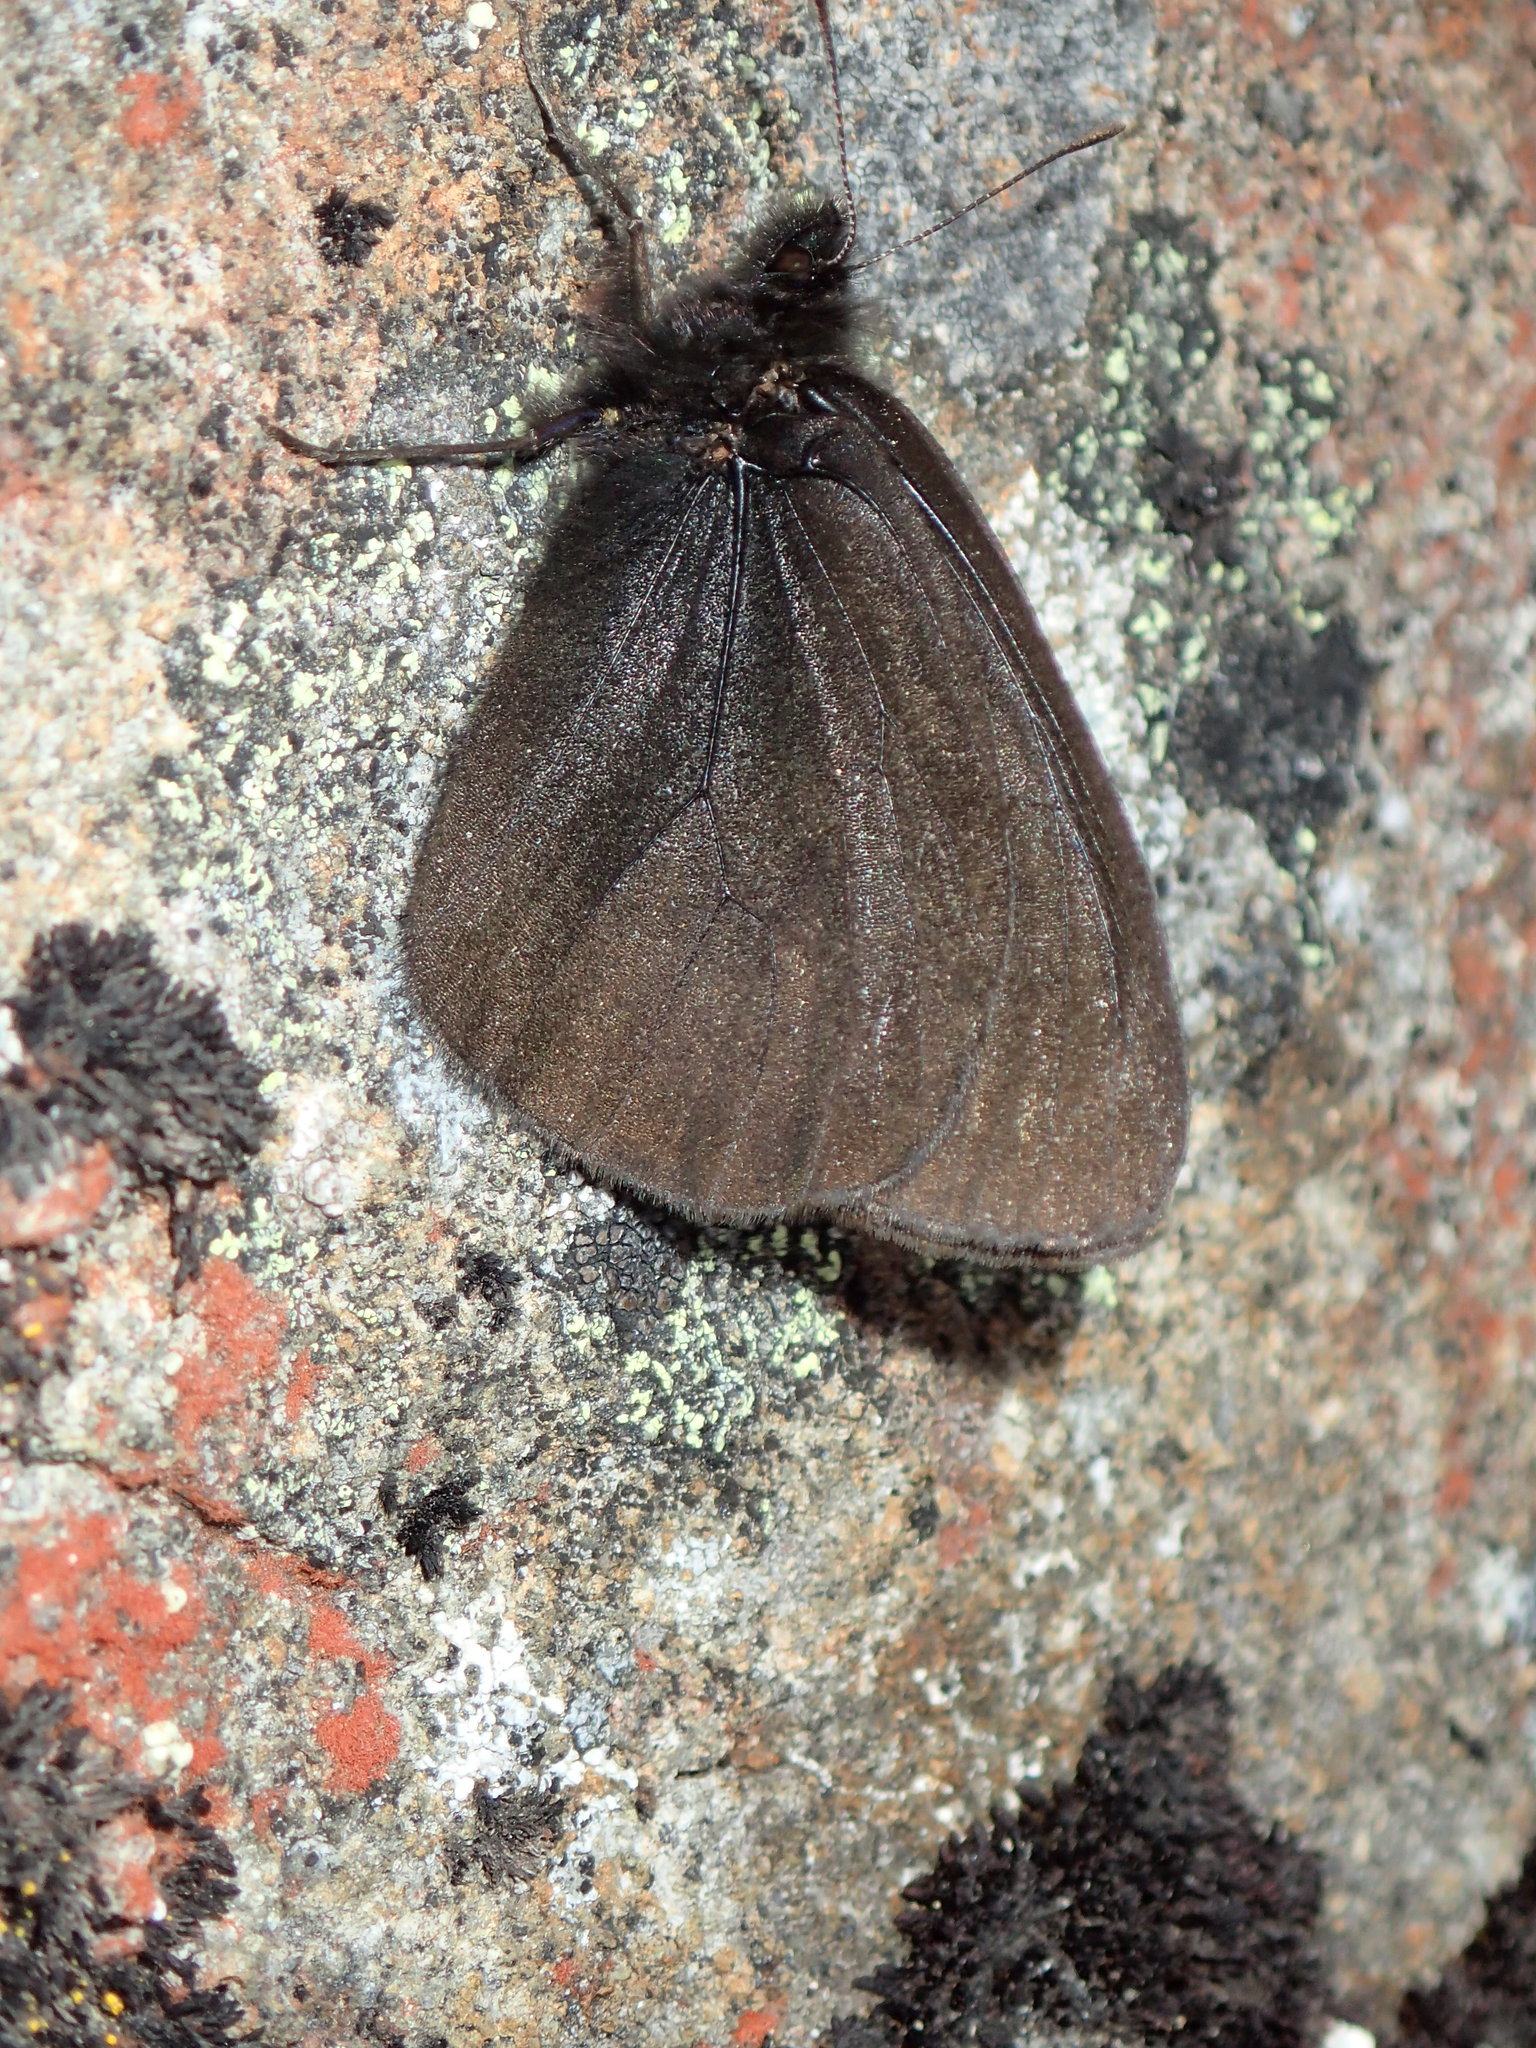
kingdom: Animalia
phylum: Arthropoda
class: Insecta
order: Lepidoptera
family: Nymphalidae
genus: Erebia
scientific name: Erebia mackinleyensis
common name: Mt. mackinley alpine
